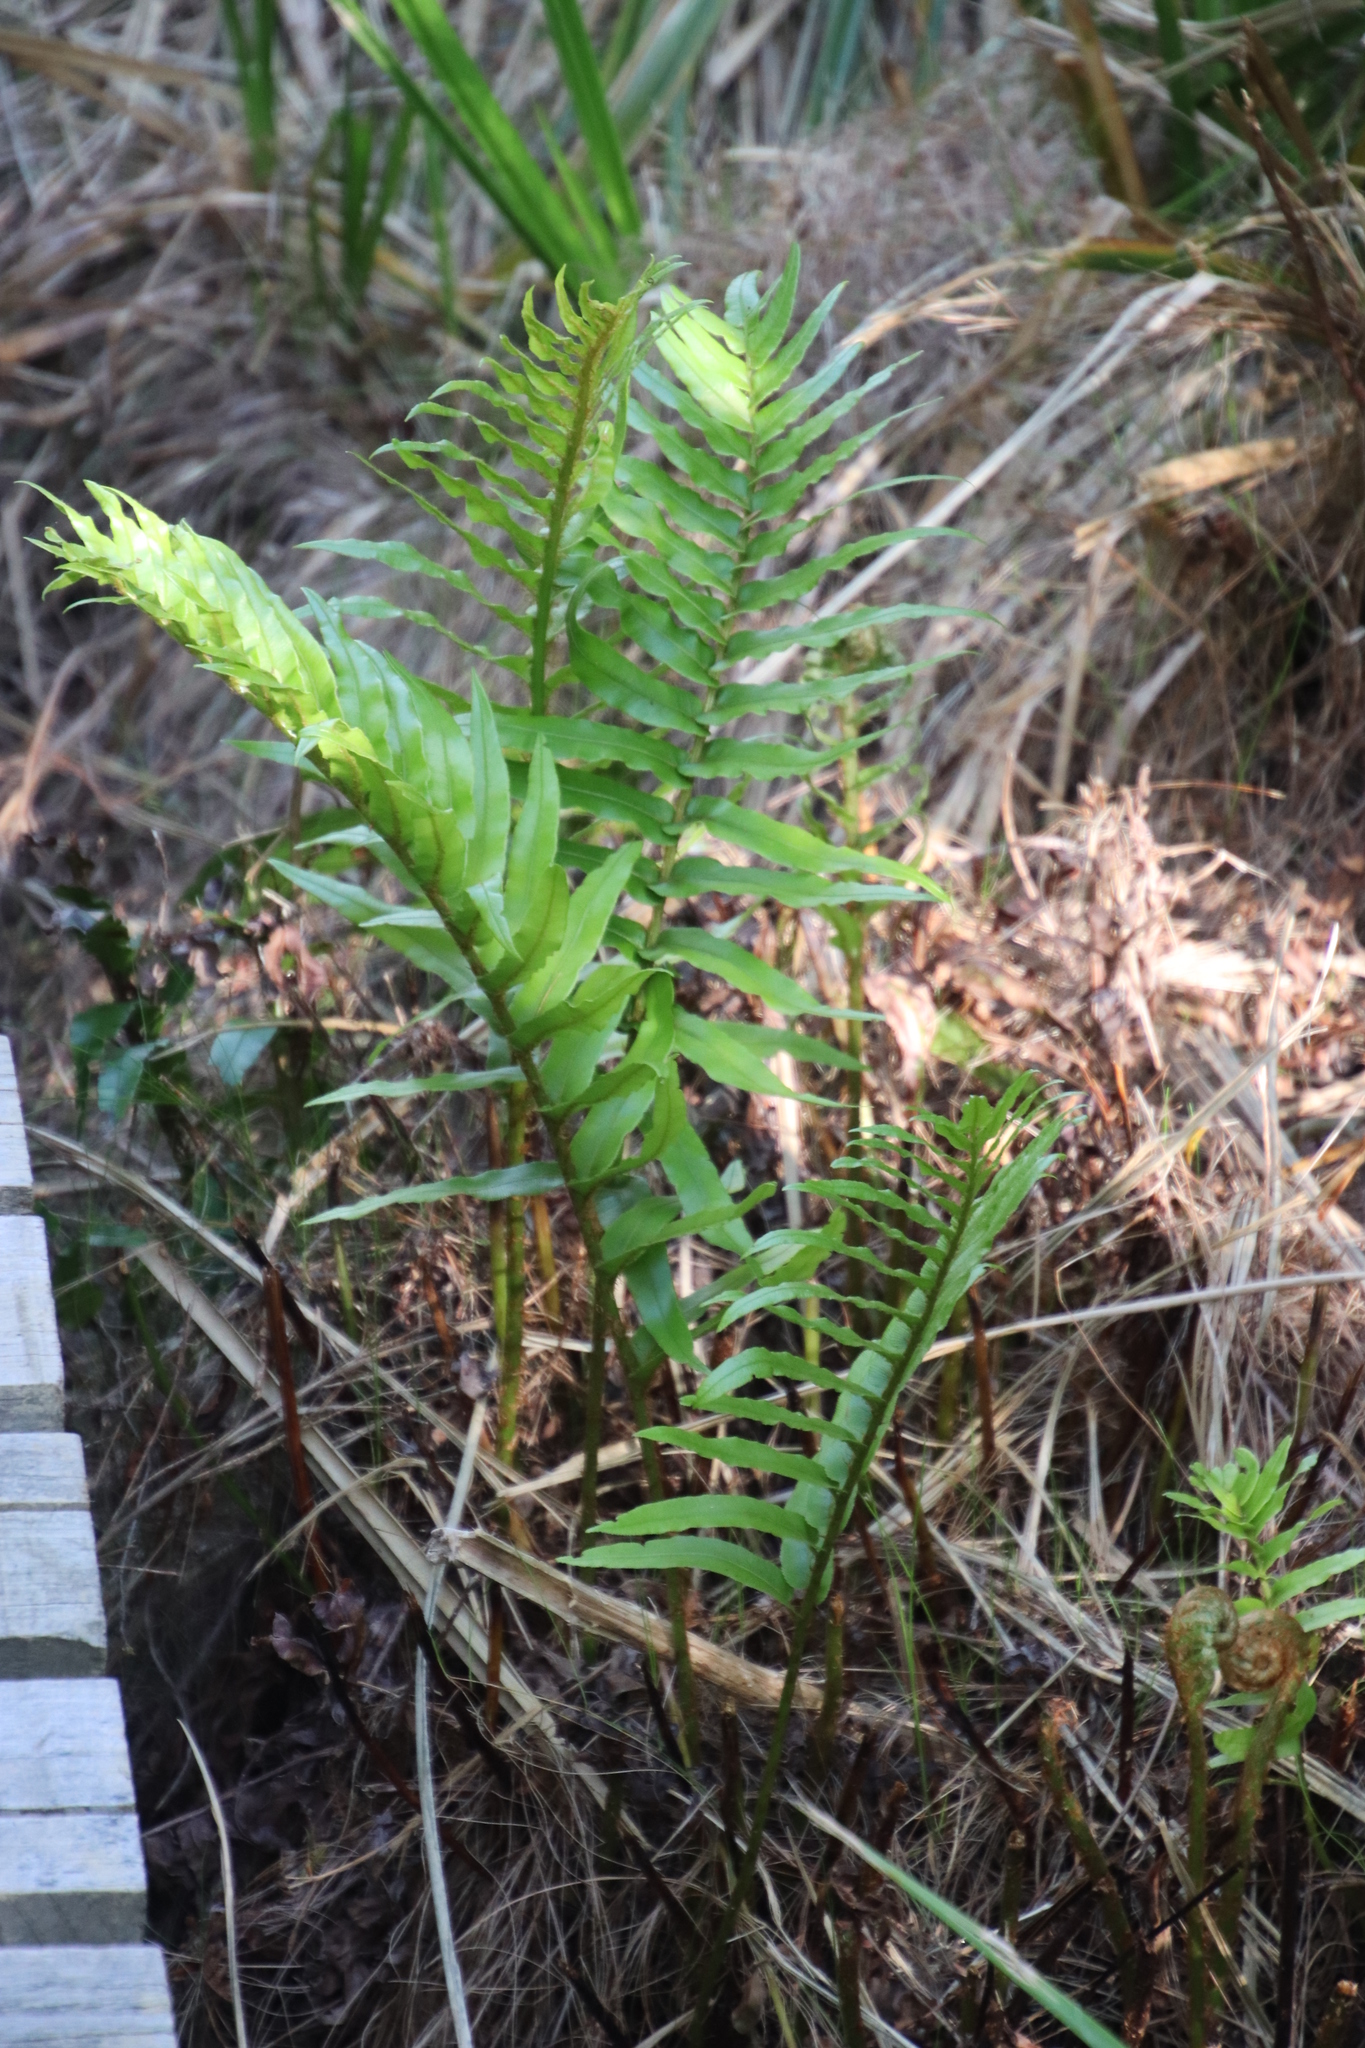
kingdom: Plantae
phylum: Tracheophyta
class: Polypodiopsida
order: Polypodiales
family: Blechnaceae
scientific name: Blechnaceae
